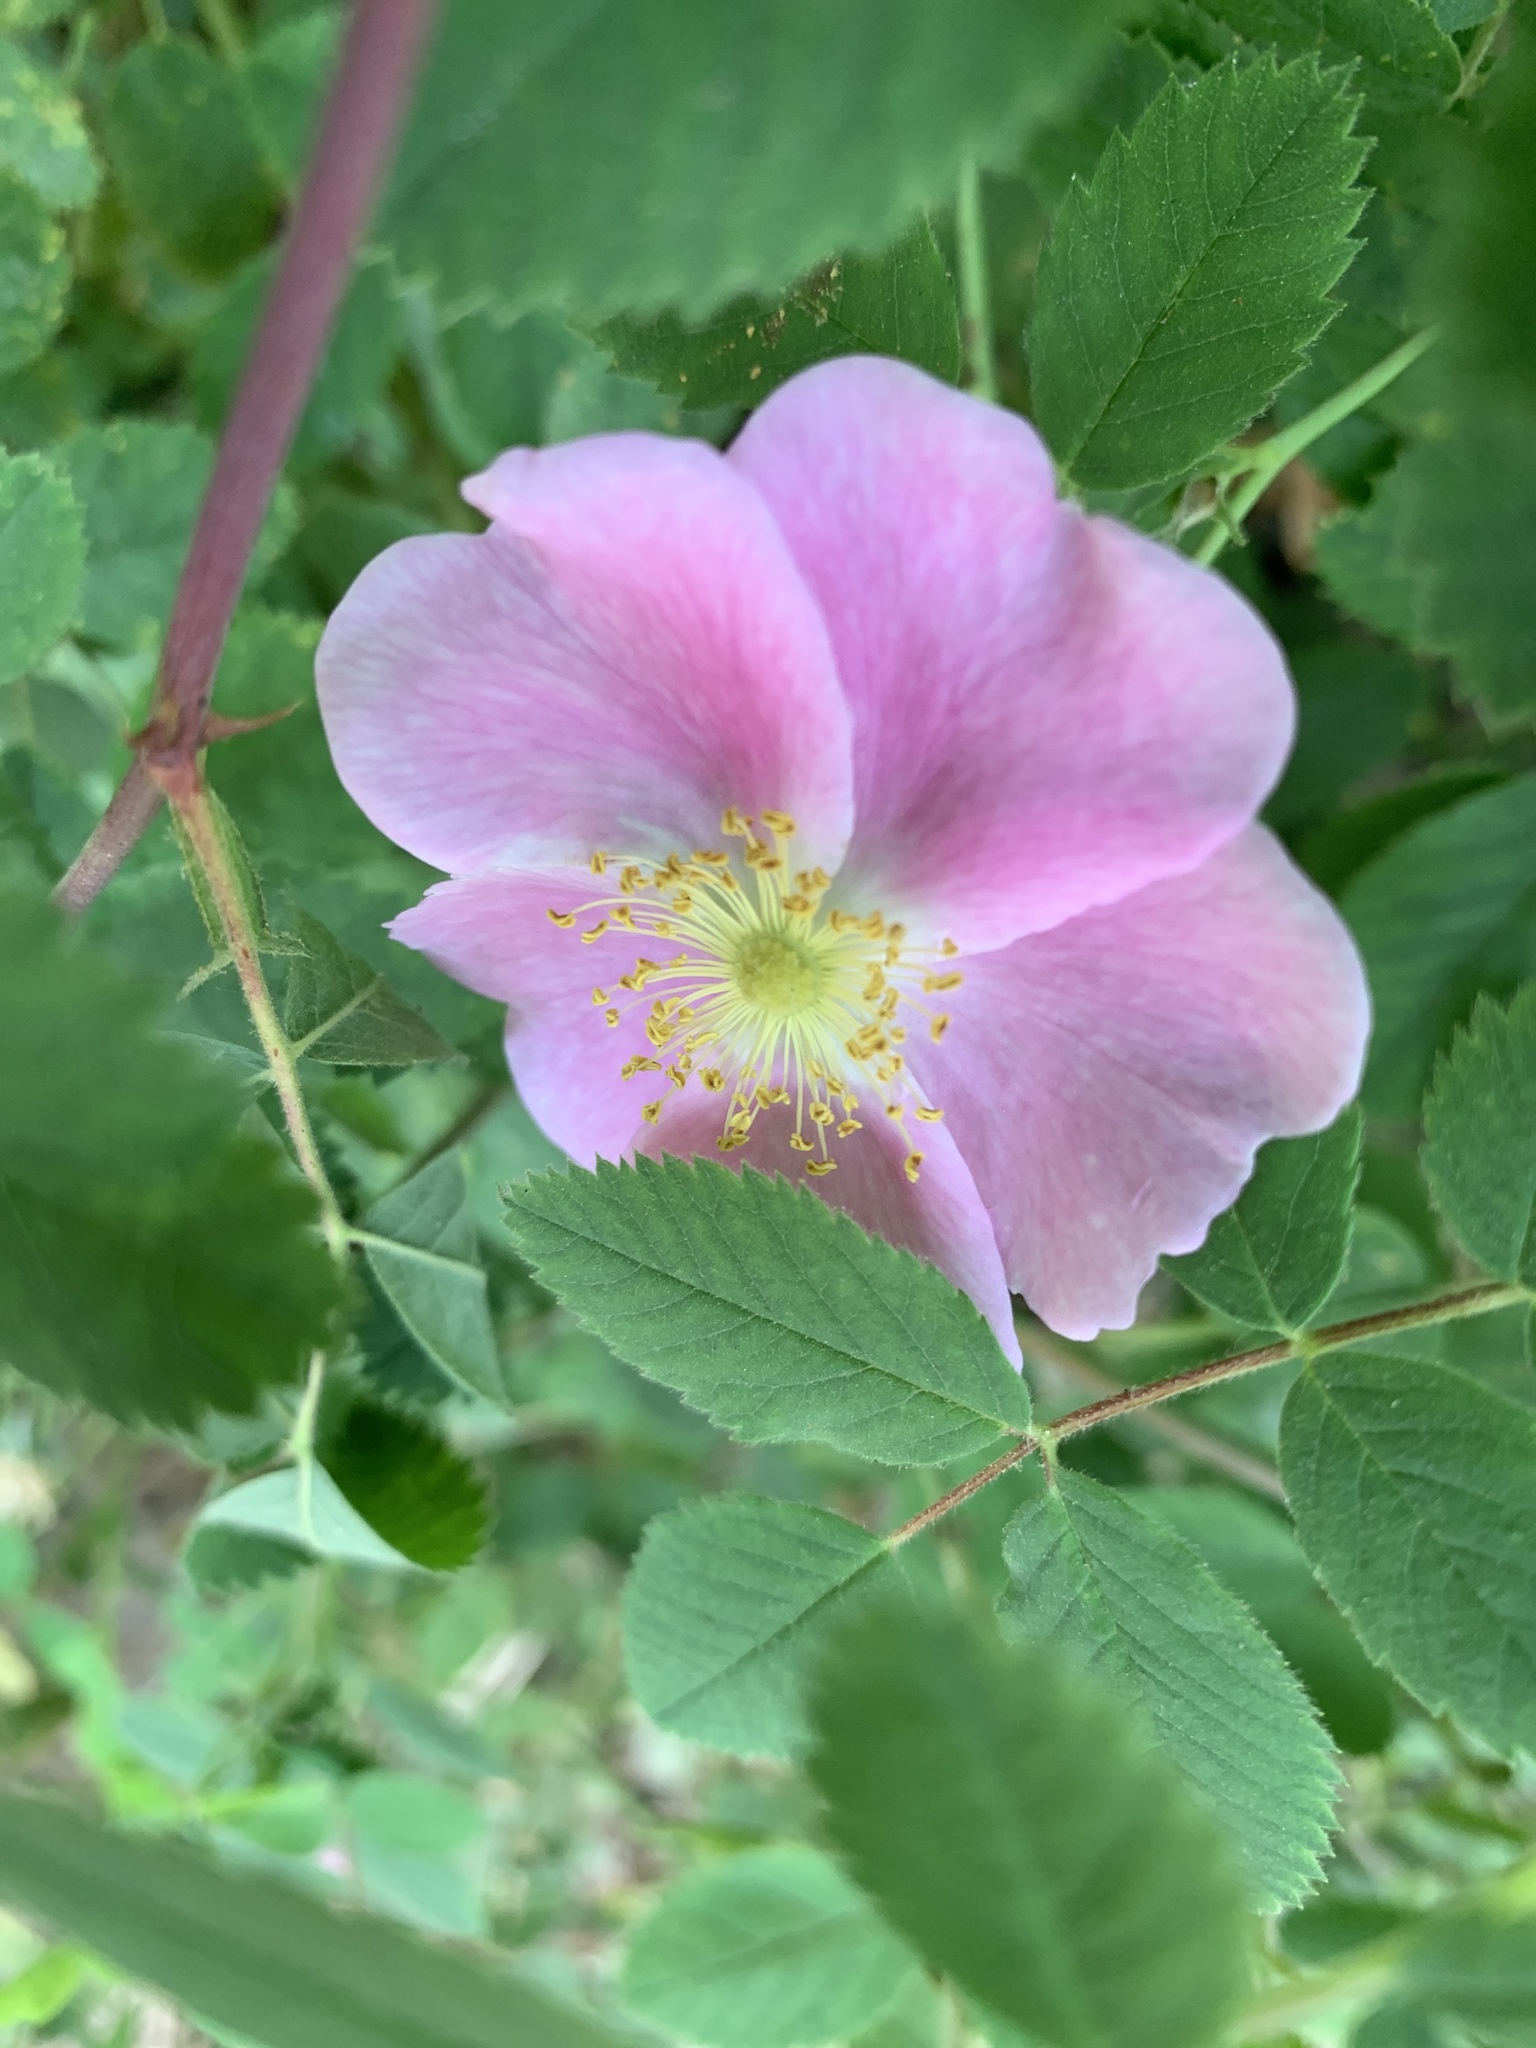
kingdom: Plantae
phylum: Tracheophyta
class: Magnoliopsida
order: Rosales
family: Rosaceae
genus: Rosa
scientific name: Rosa californica
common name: California rose
